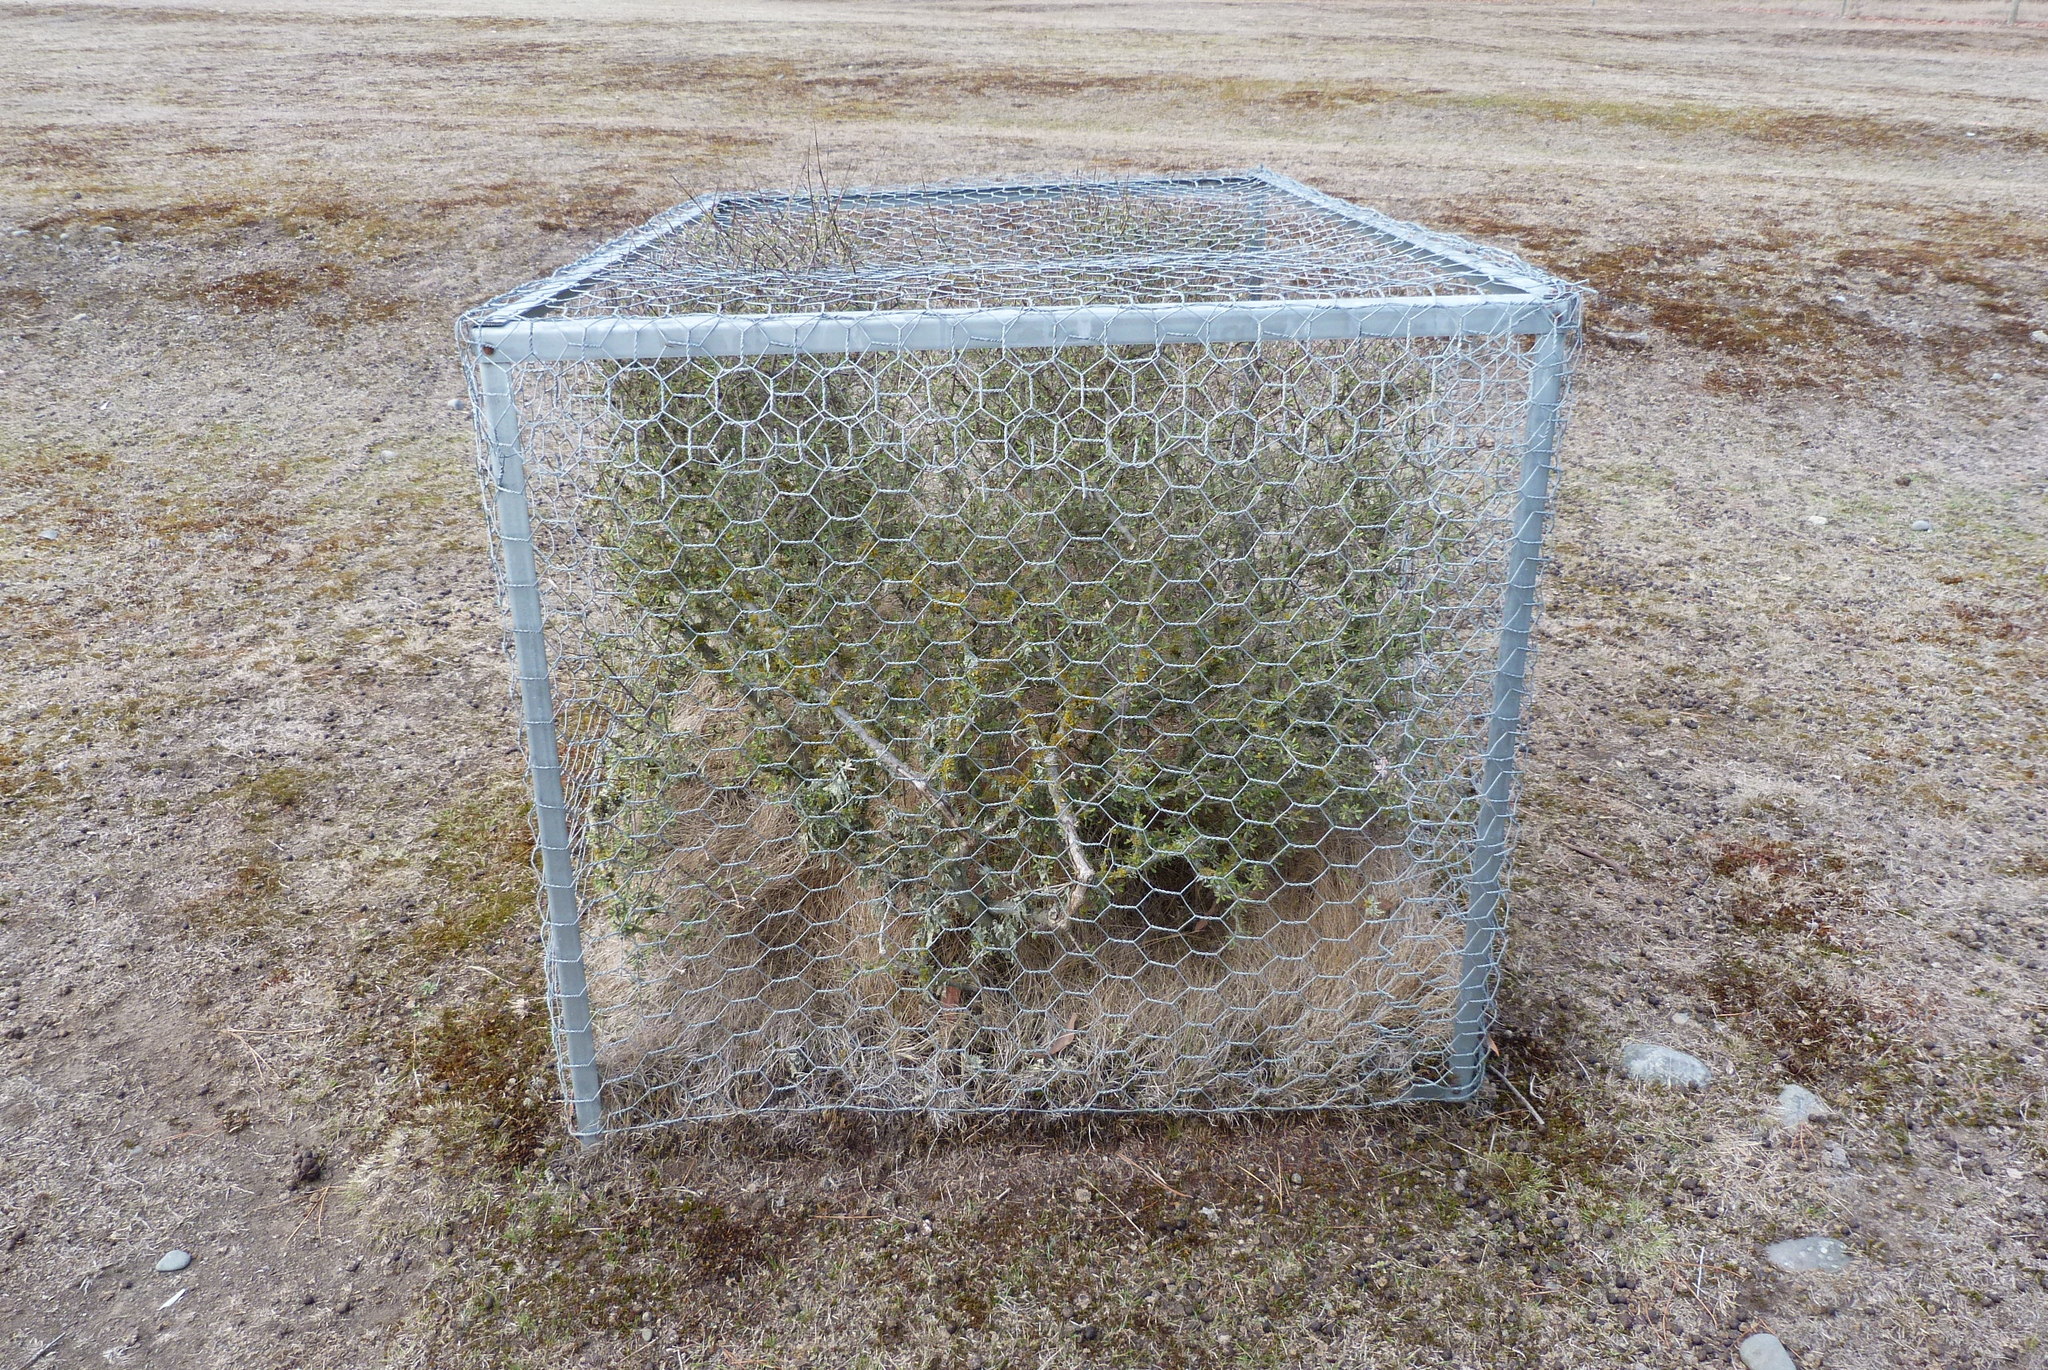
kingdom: Plantae
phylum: Tracheophyta
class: Magnoliopsida
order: Asterales
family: Asteraceae
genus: Olearia
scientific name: Olearia adenocarpa
